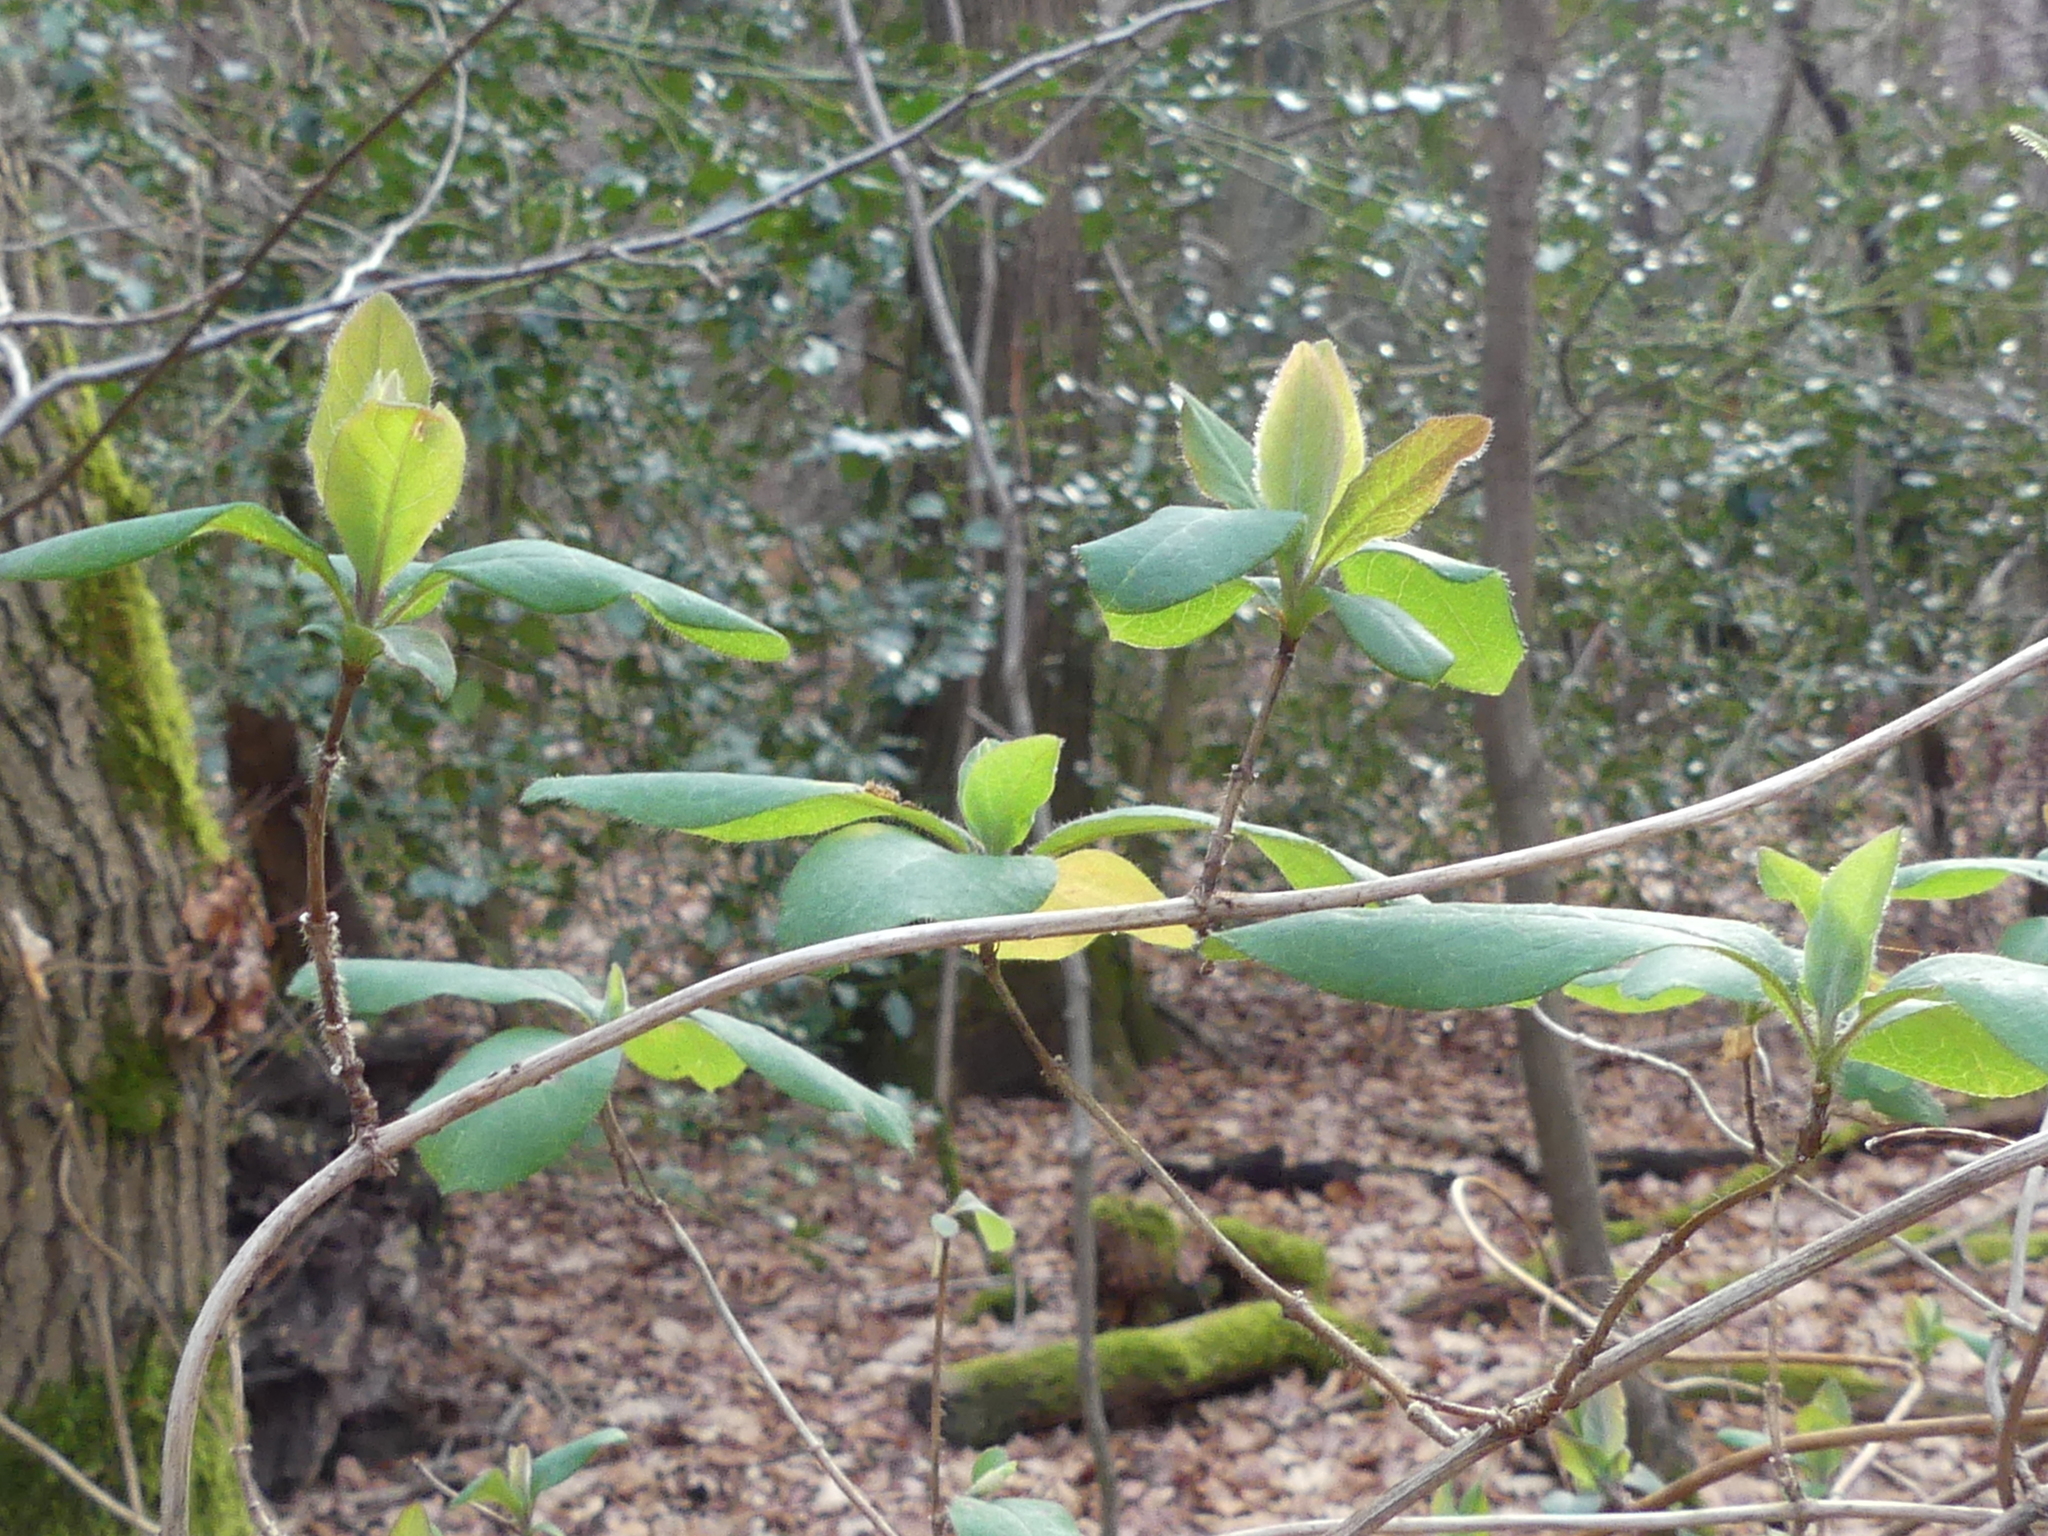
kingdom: Plantae
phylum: Tracheophyta
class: Magnoliopsida
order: Dipsacales
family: Caprifoliaceae
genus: Lonicera
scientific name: Lonicera periclymenum
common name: European honeysuckle
